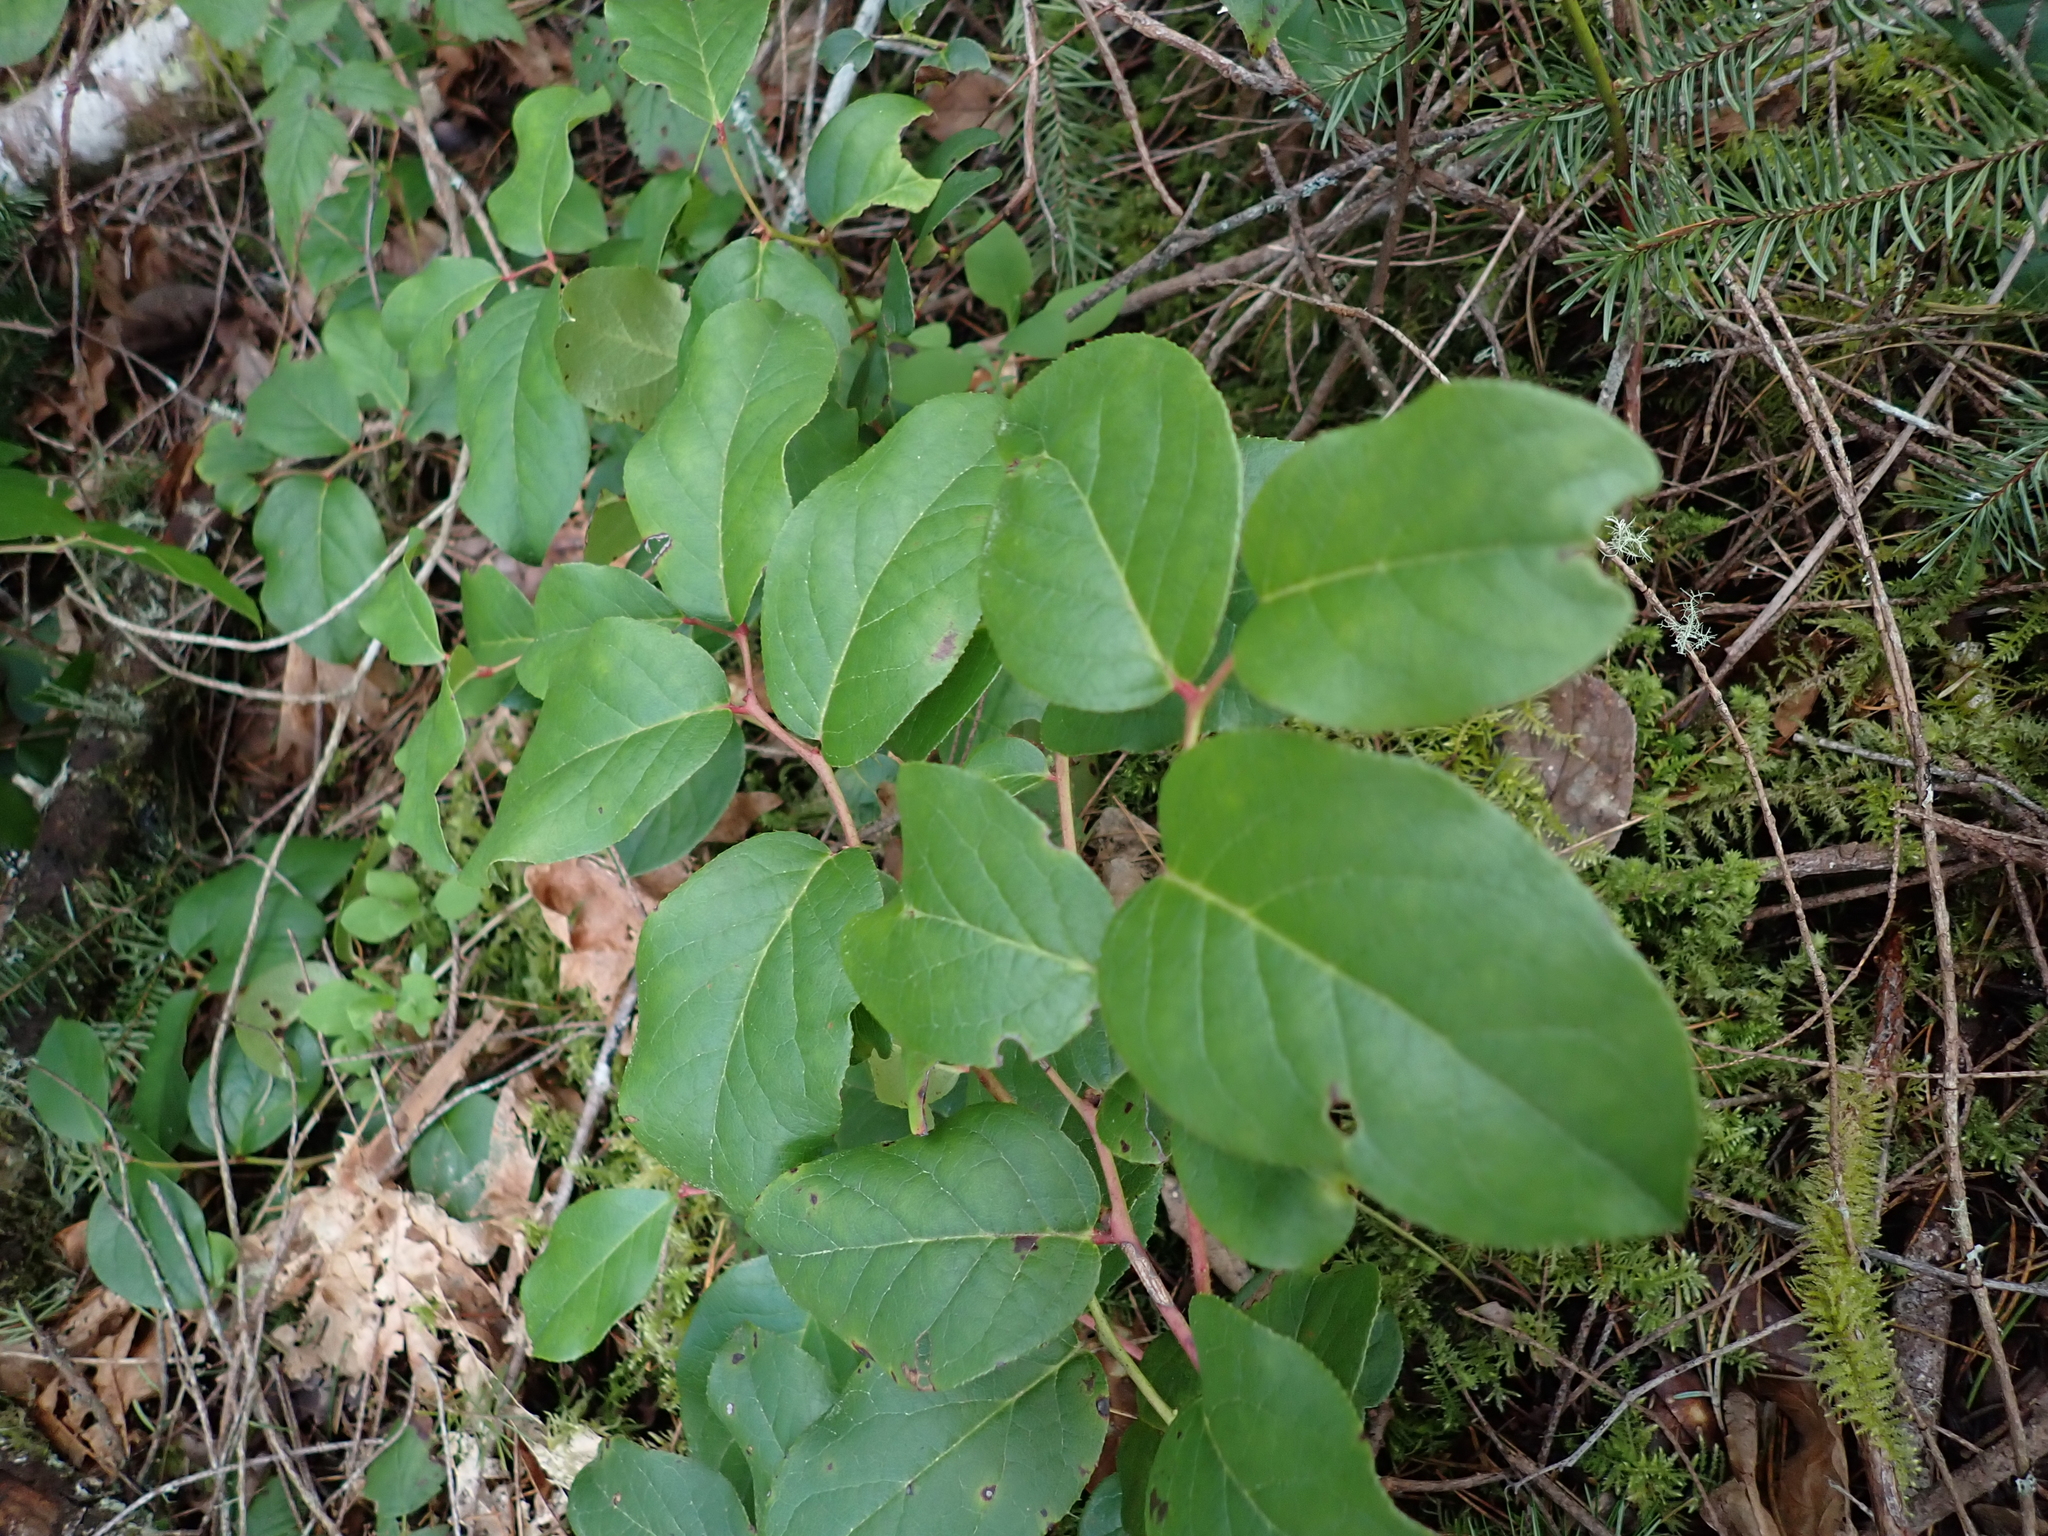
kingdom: Plantae
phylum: Tracheophyta
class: Magnoliopsida
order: Ericales
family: Ericaceae
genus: Gaultheria
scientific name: Gaultheria shallon
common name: Shallon
